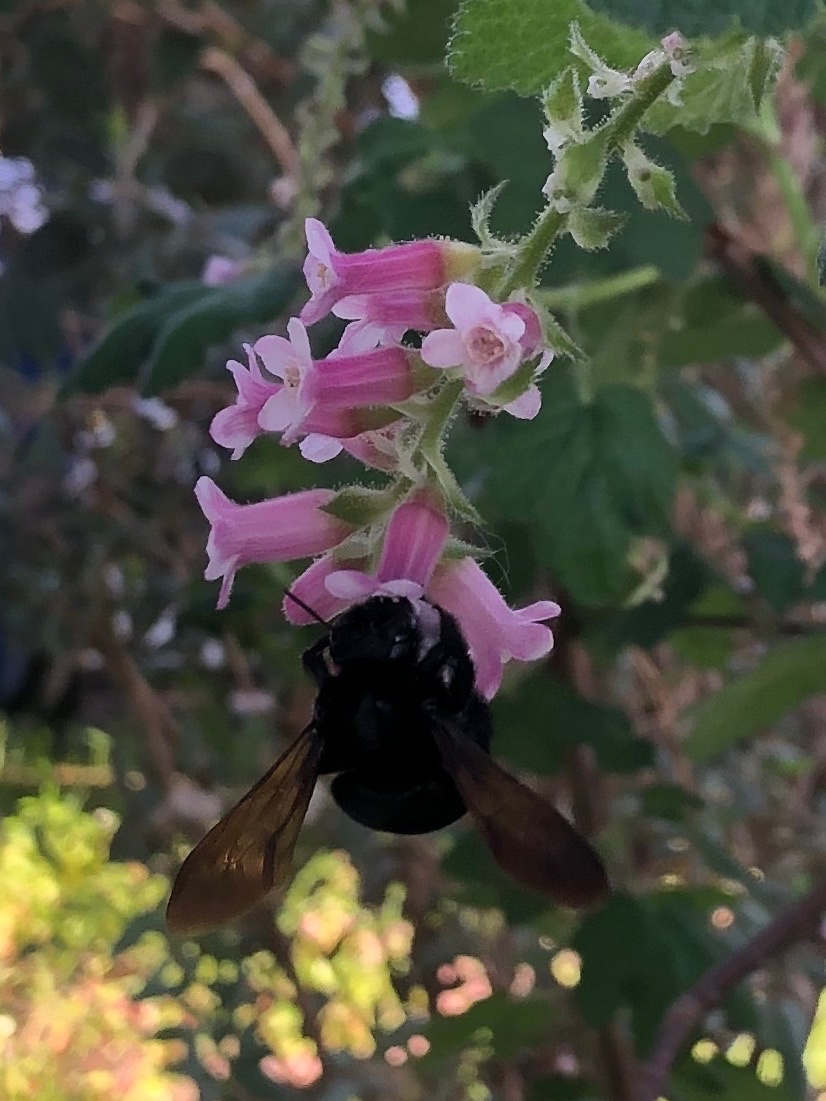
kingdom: Animalia
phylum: Arthropoda
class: Insecta
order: Hymenoptera
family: Apidae
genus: Xylocopa
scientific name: Xylocopa sonorina
